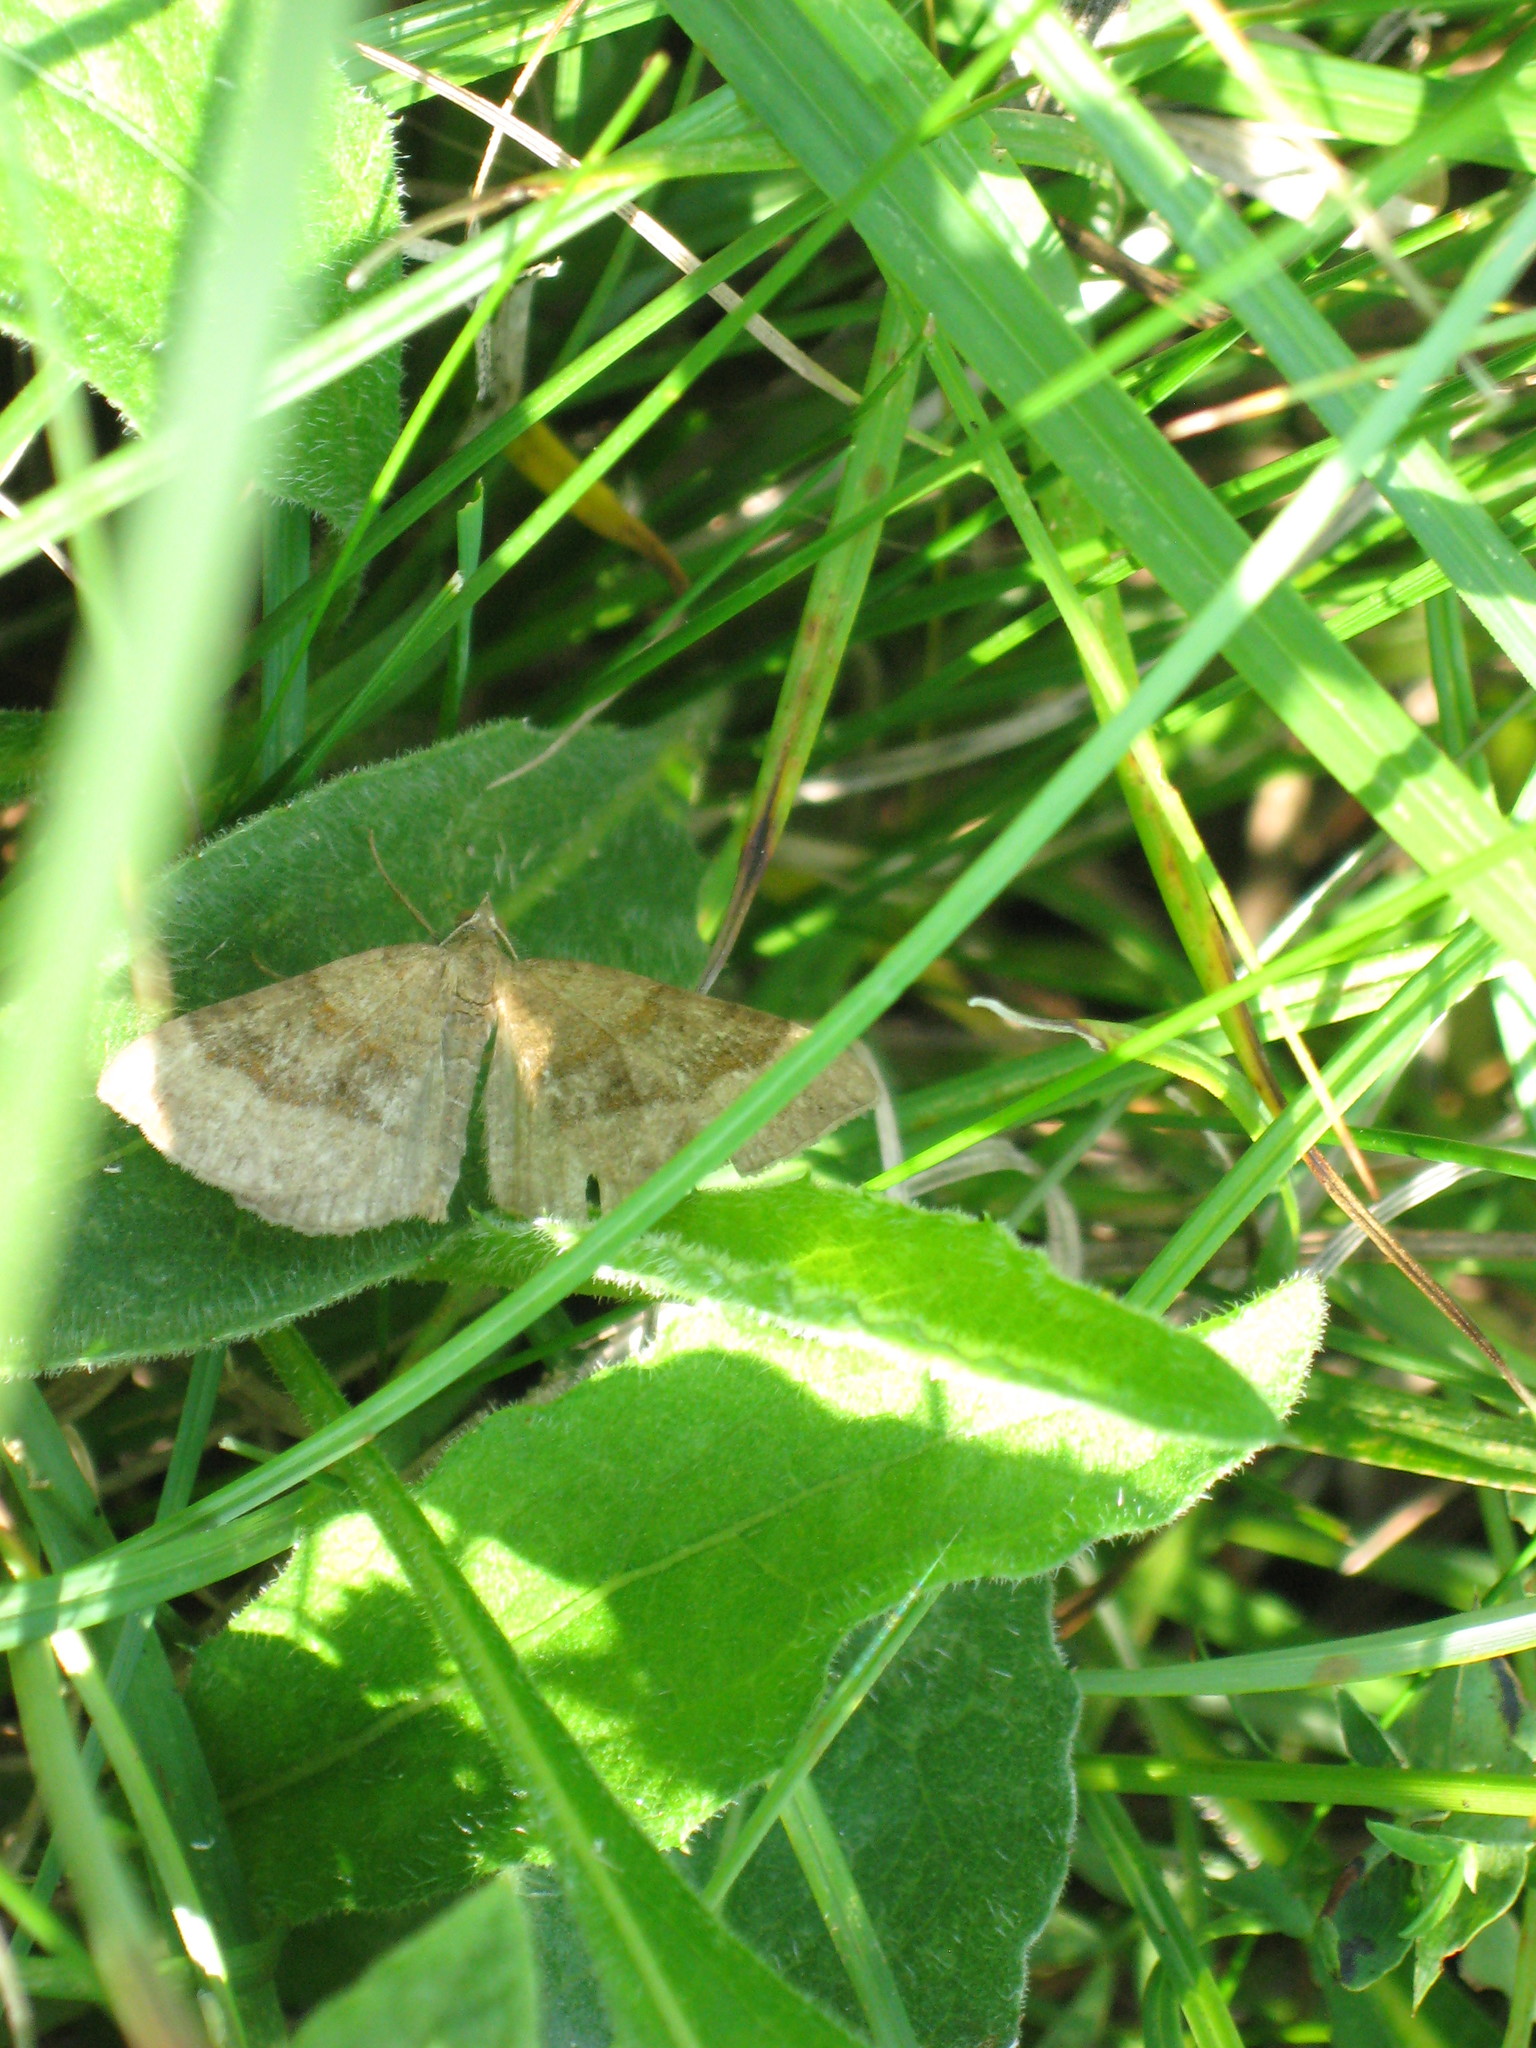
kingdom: Animalia
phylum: Arthropoda
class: Insecta
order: Lepidoptera
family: Geometridae
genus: Scotopteryx
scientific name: Scotopteryx chenopodiata
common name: Shaded broad-bar
